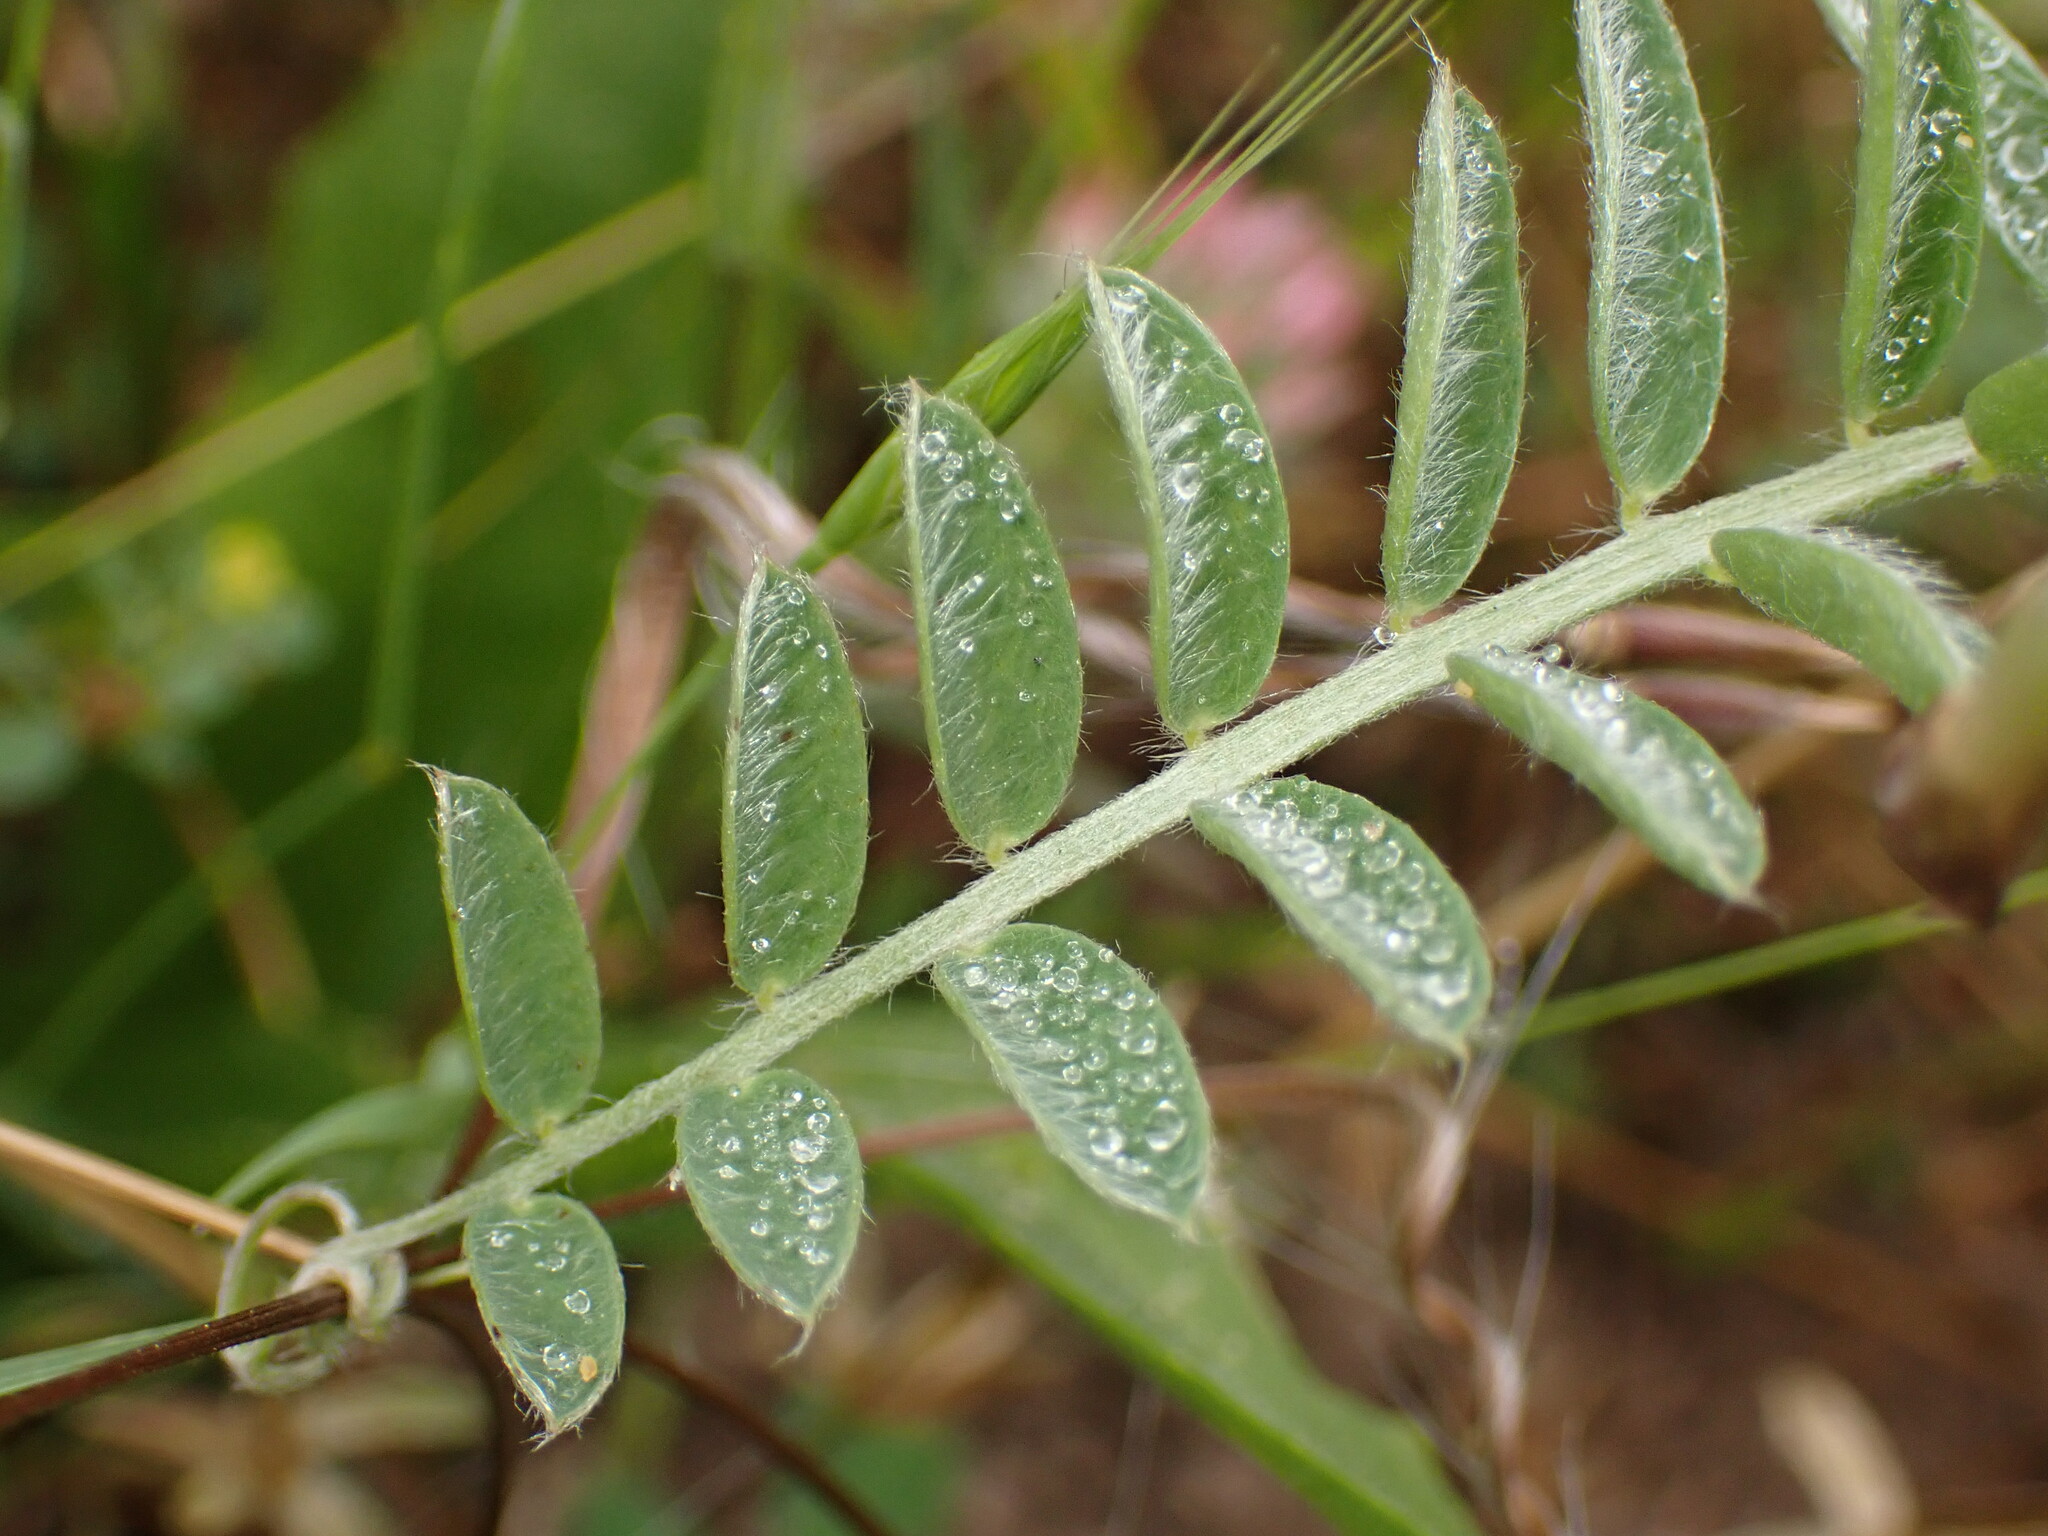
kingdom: Plantae
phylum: Tracheophyta
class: Magnoliopsida
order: Fabales
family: Fabaceae
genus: Vicia
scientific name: Vicia benghalensis
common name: Purple vetch
